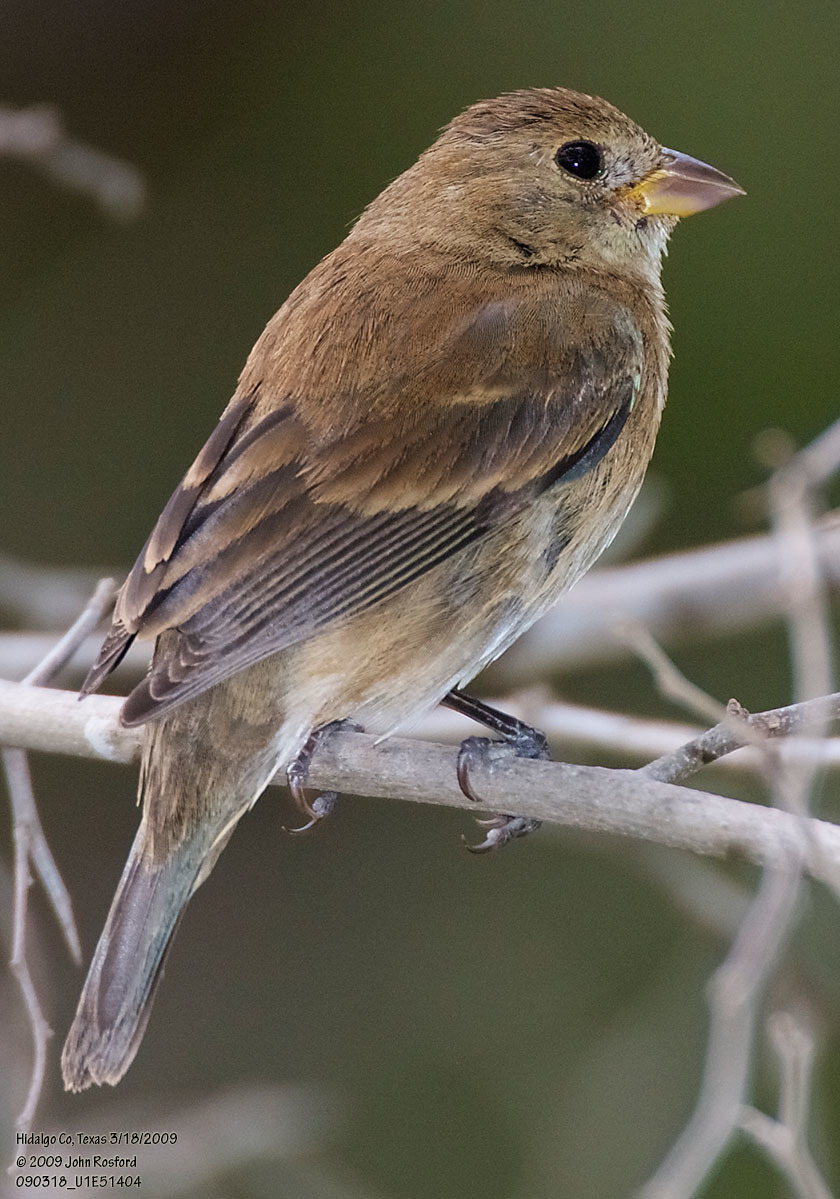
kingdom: Animalia
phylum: Chordata
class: Aves
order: Passeriformes
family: Cardinalidae
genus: Passerina
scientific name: Passerina cyanea
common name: Indigo bunting
